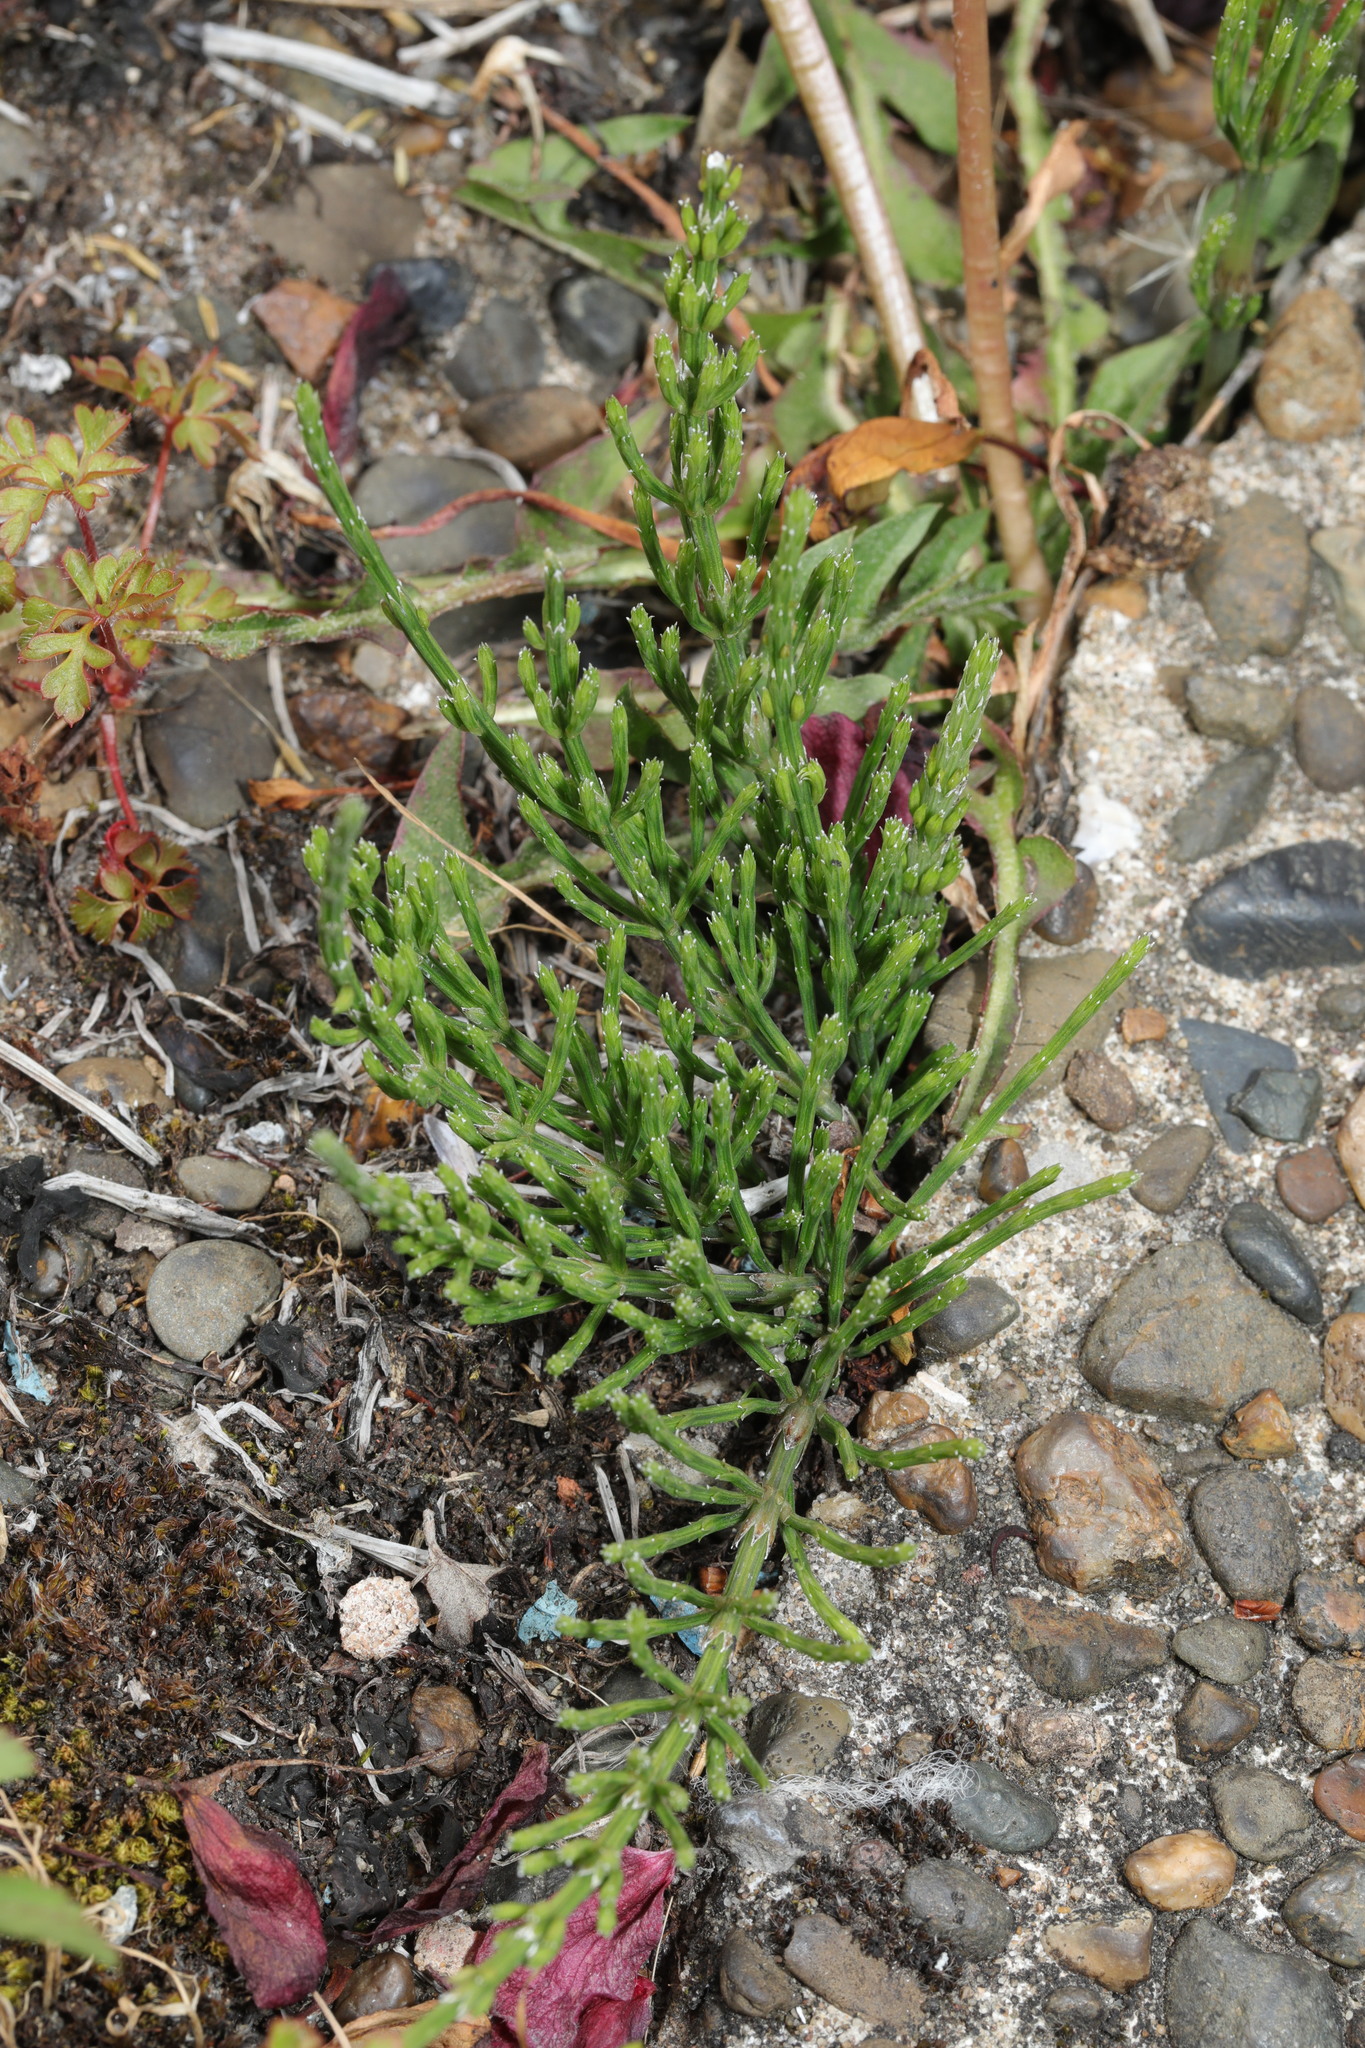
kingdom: Plantae
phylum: Tracheophyta
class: Polypodiopsida
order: Equisetales
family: Equisetaceae
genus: Equisetum
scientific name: Equisetum arvense
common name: Field horsetail
